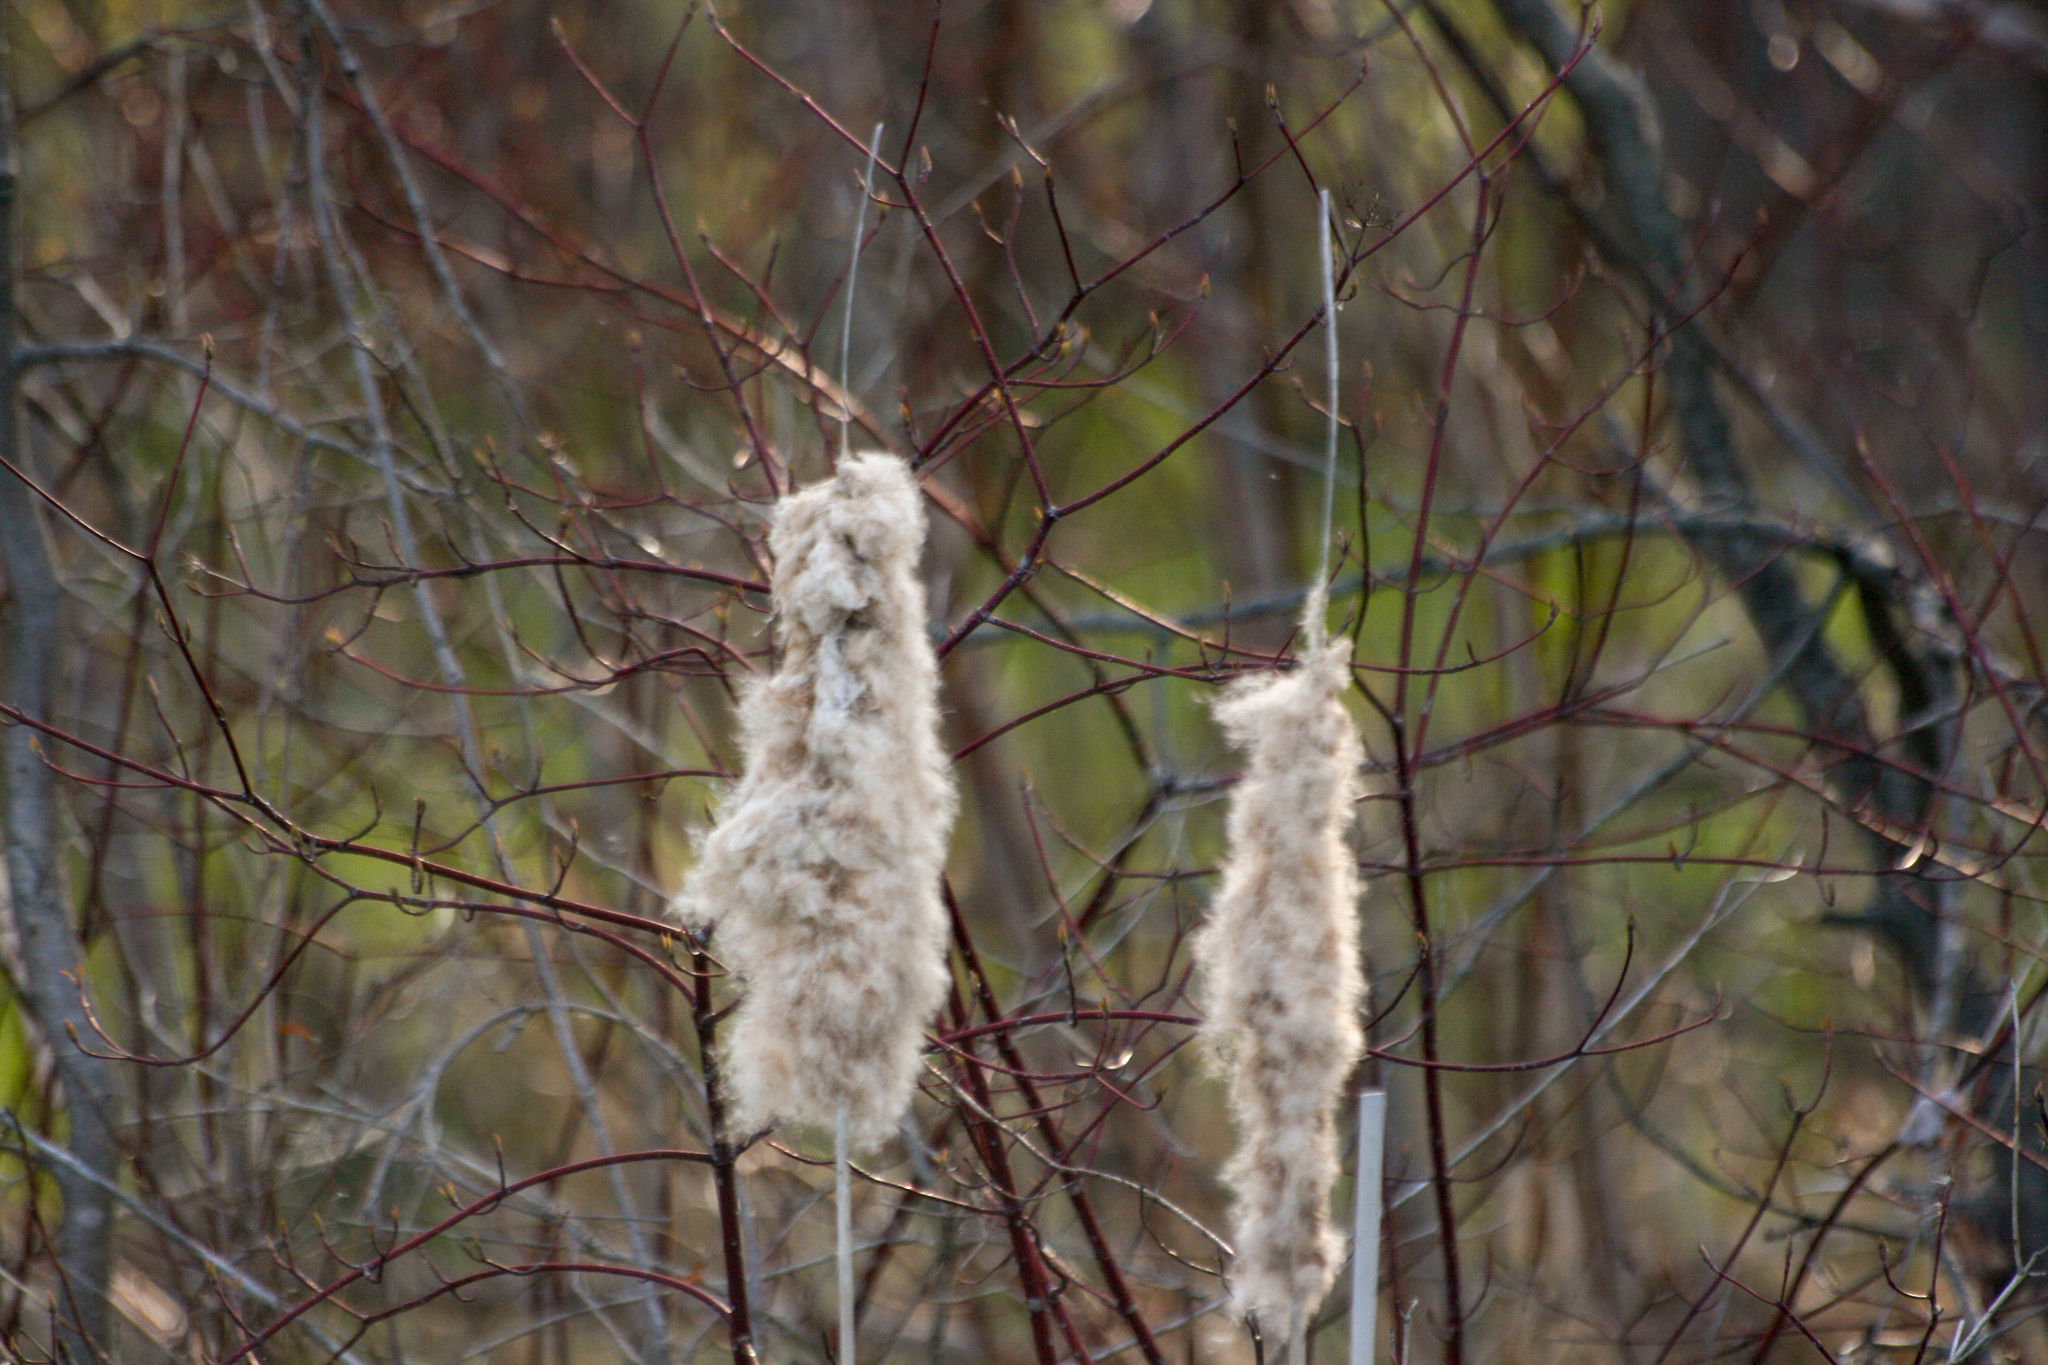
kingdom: Plantae
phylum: Tracheophyta
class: Liliopsida
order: Poales
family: Typhaceae
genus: Typha
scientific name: Typha latifolia
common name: Broadleaf cattail
